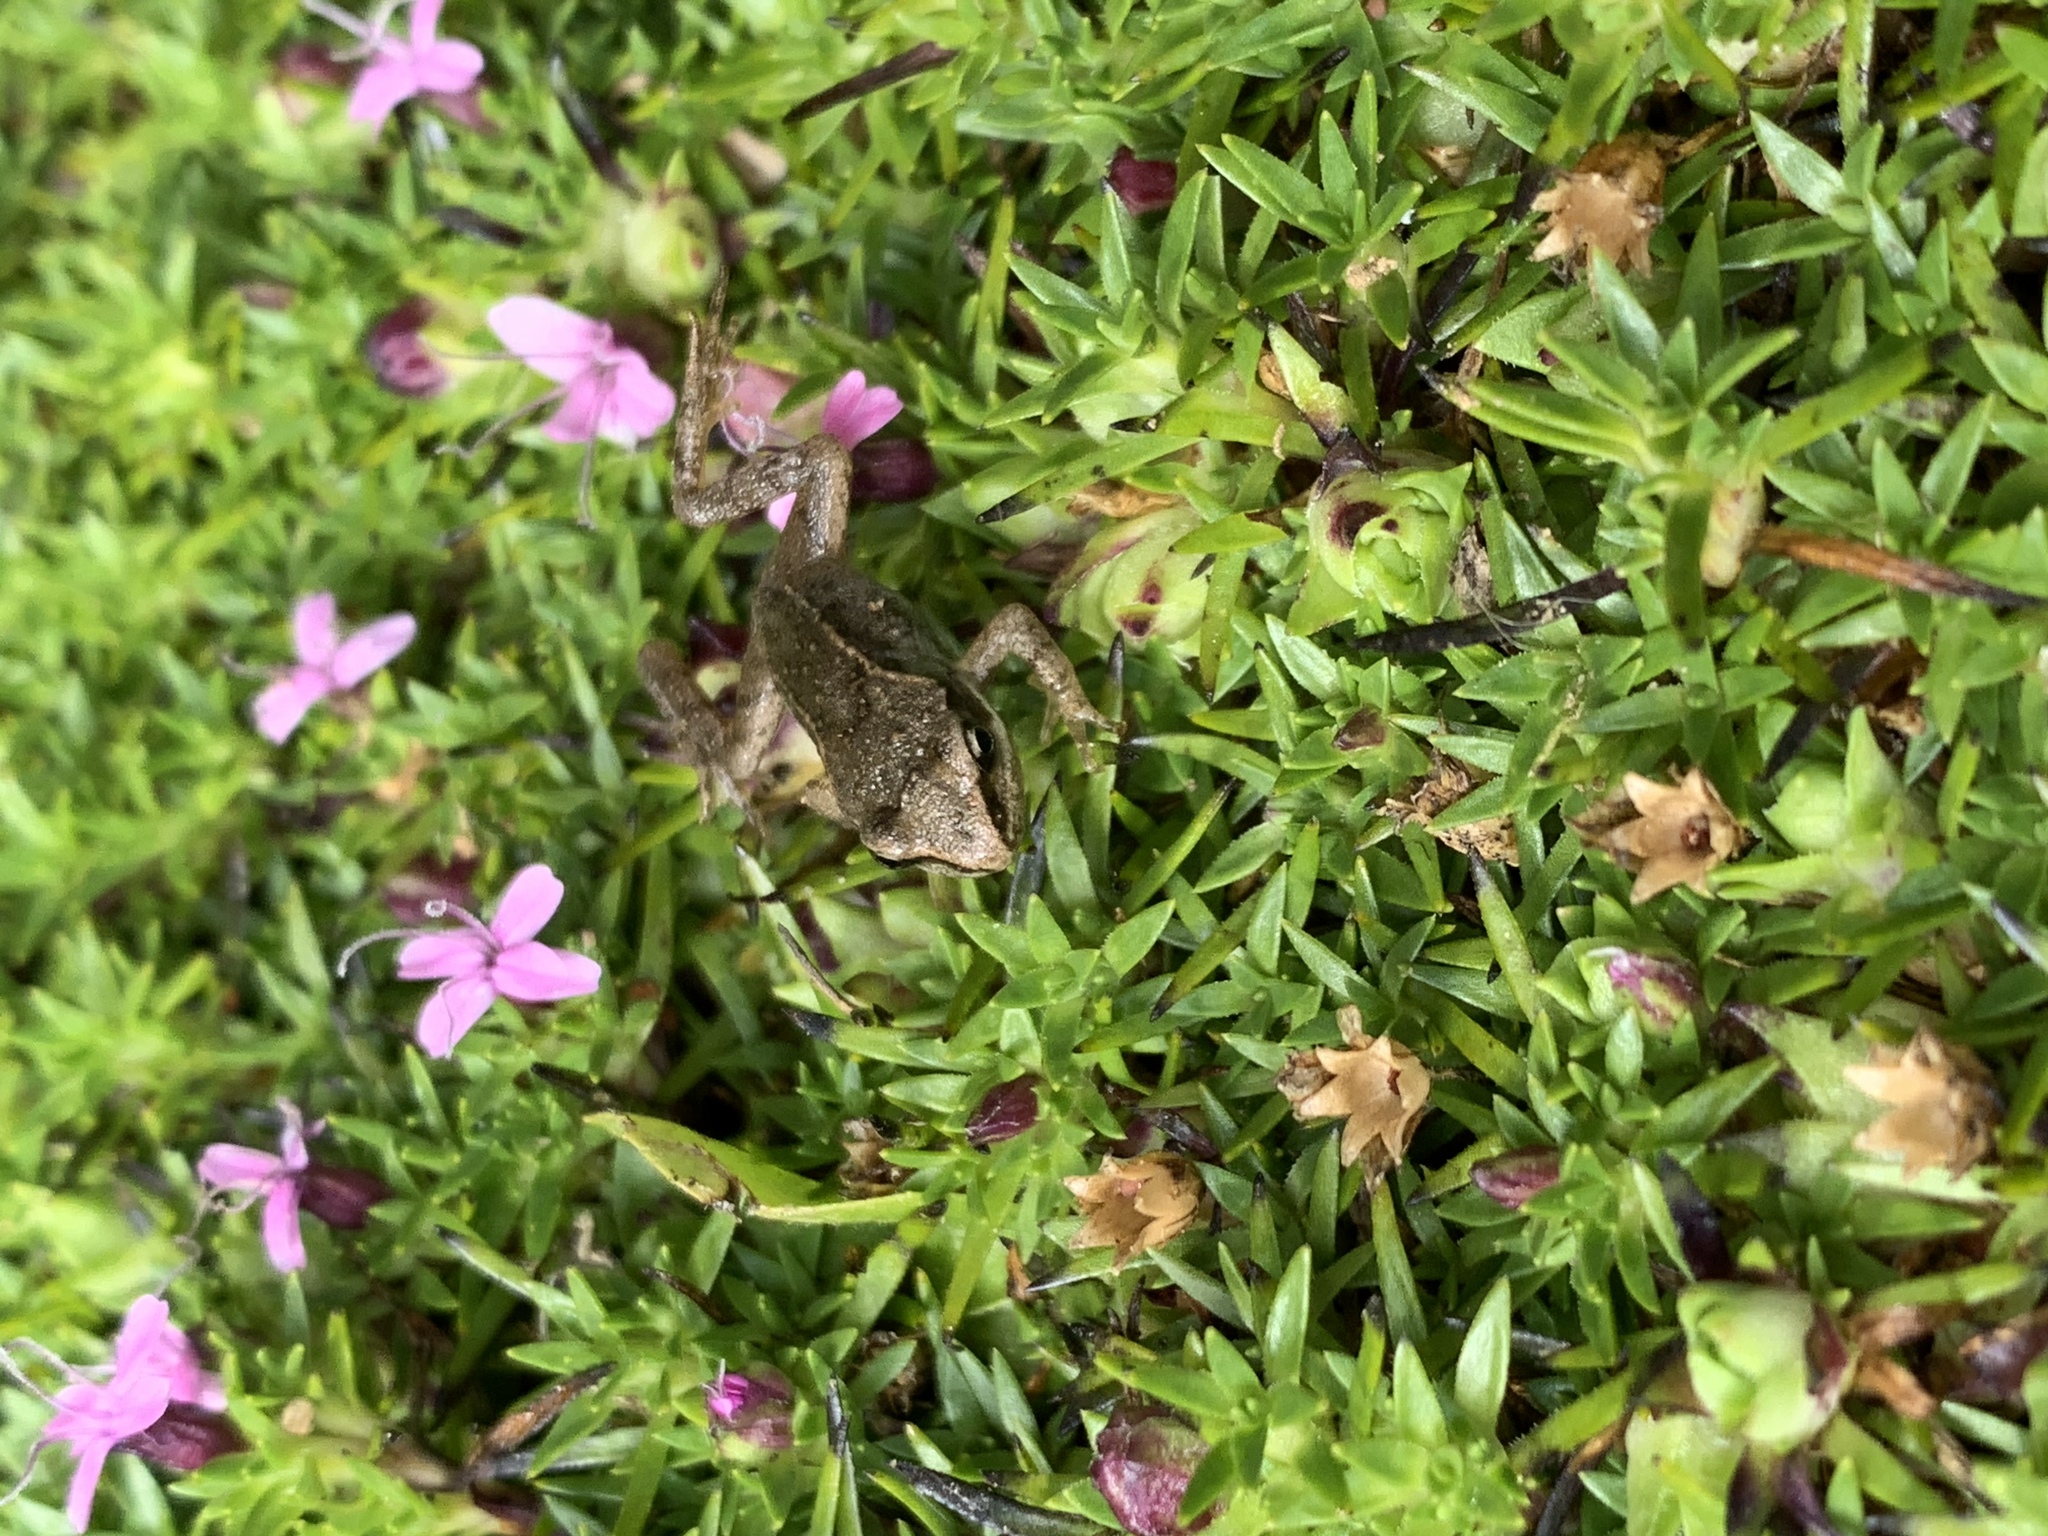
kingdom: Animalia
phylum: Chordata
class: Amphibia
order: Anura
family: Ranidae
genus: Rana
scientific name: Rana temporaria
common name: Common frog
